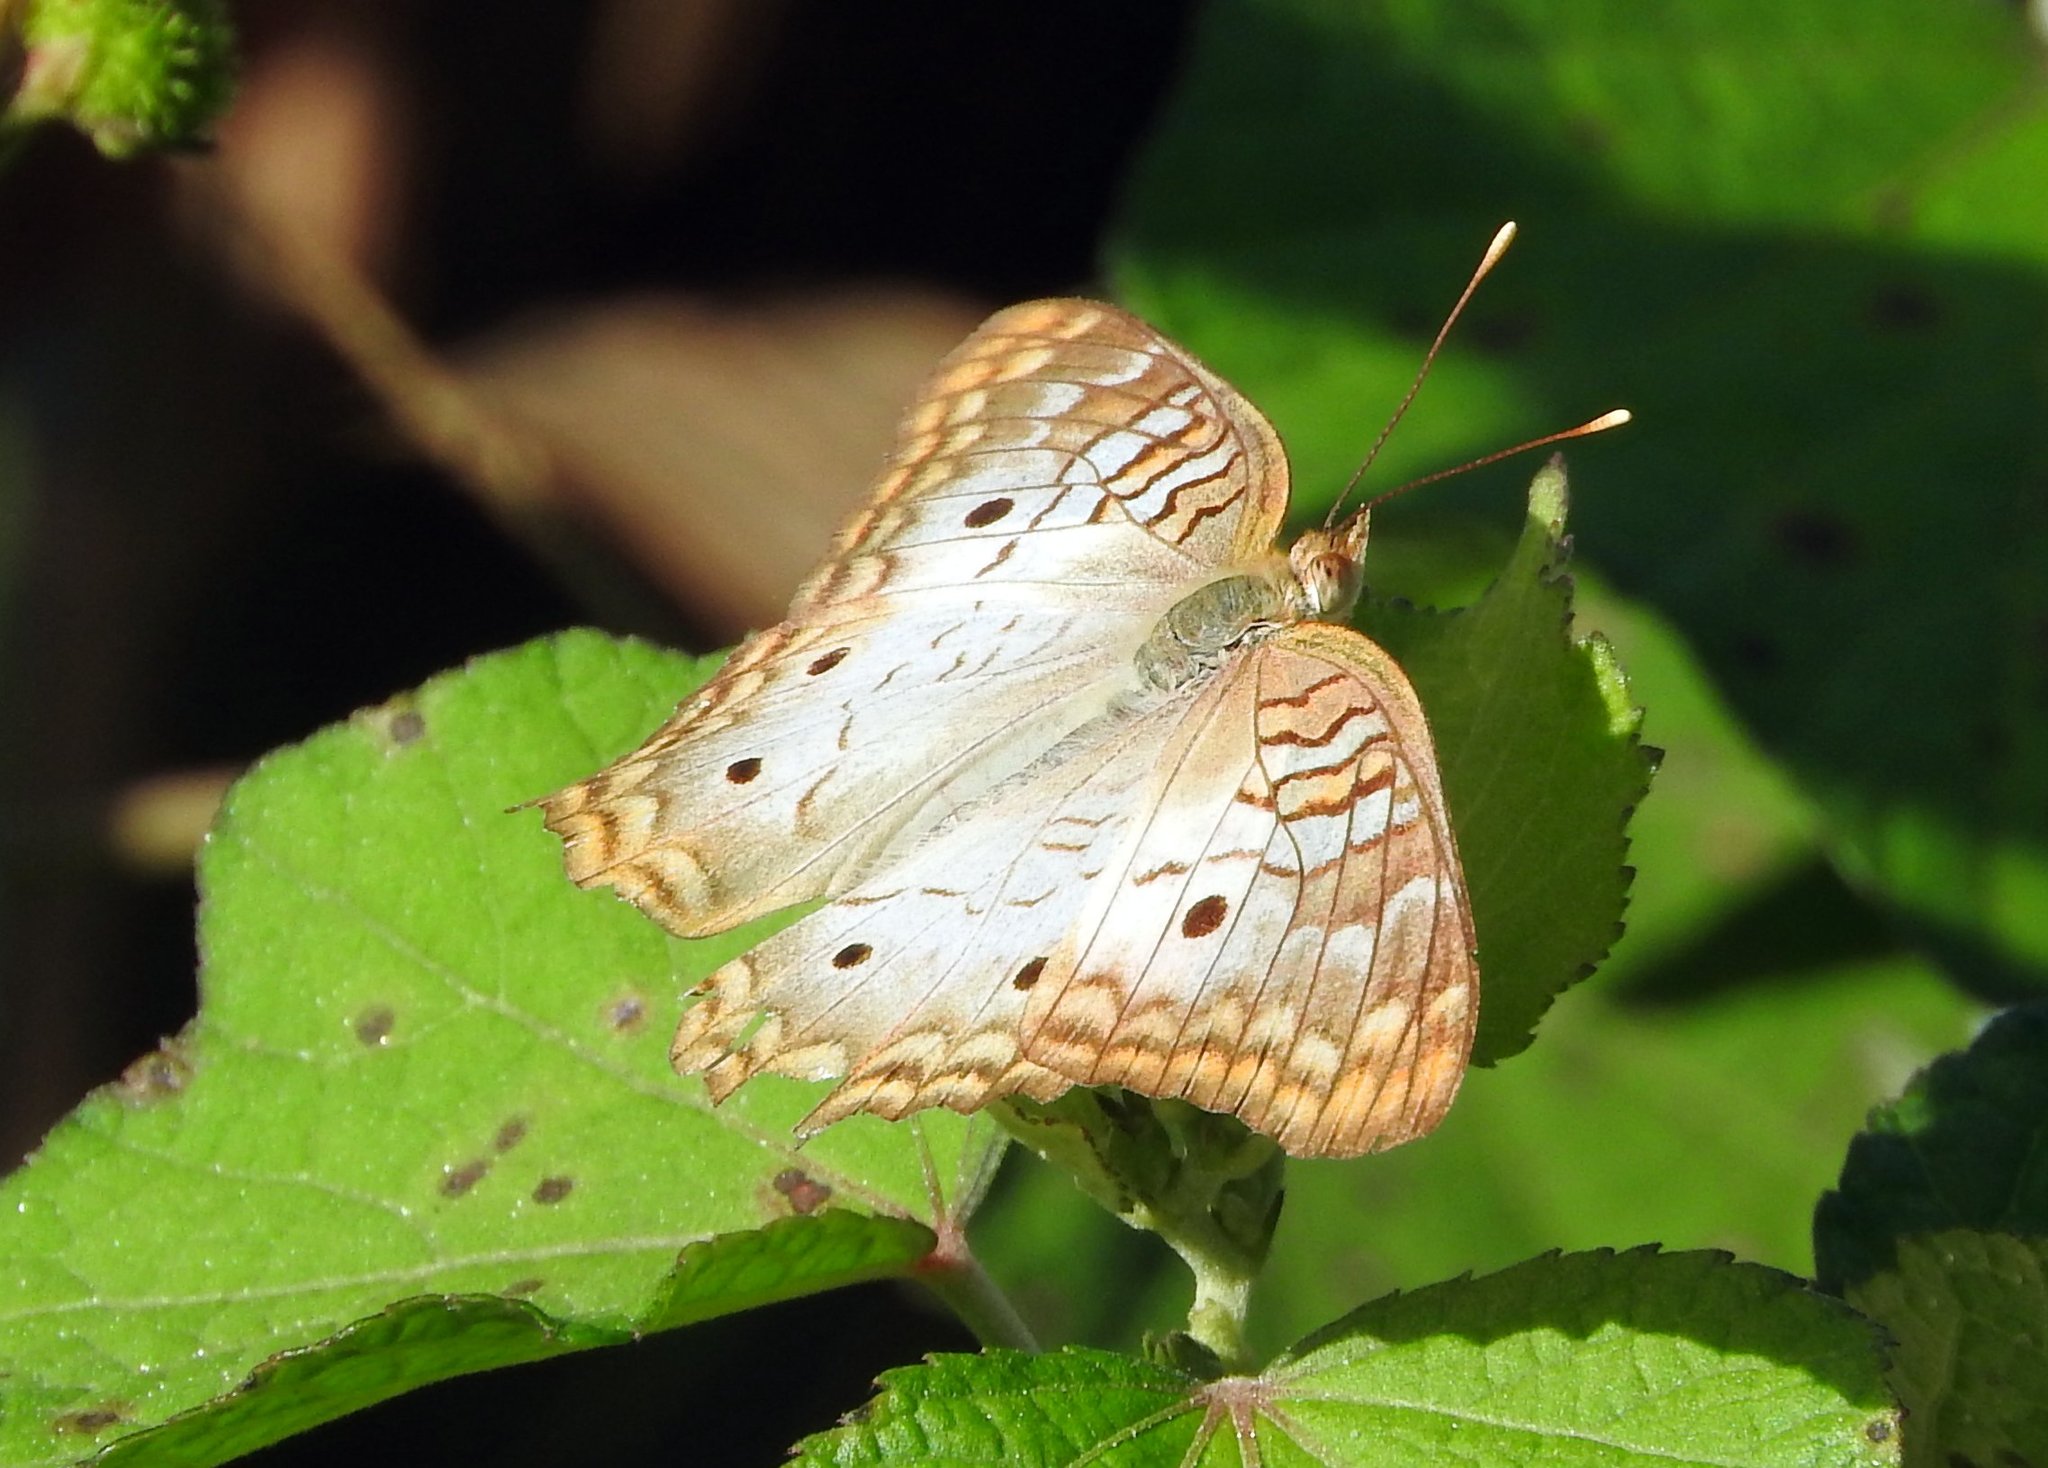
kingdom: Animalia
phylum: Arthropoda
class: Insecta
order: Lepidoptera
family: Nymphalidae
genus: Anartia
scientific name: Anartia jatrophae
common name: White peacock
